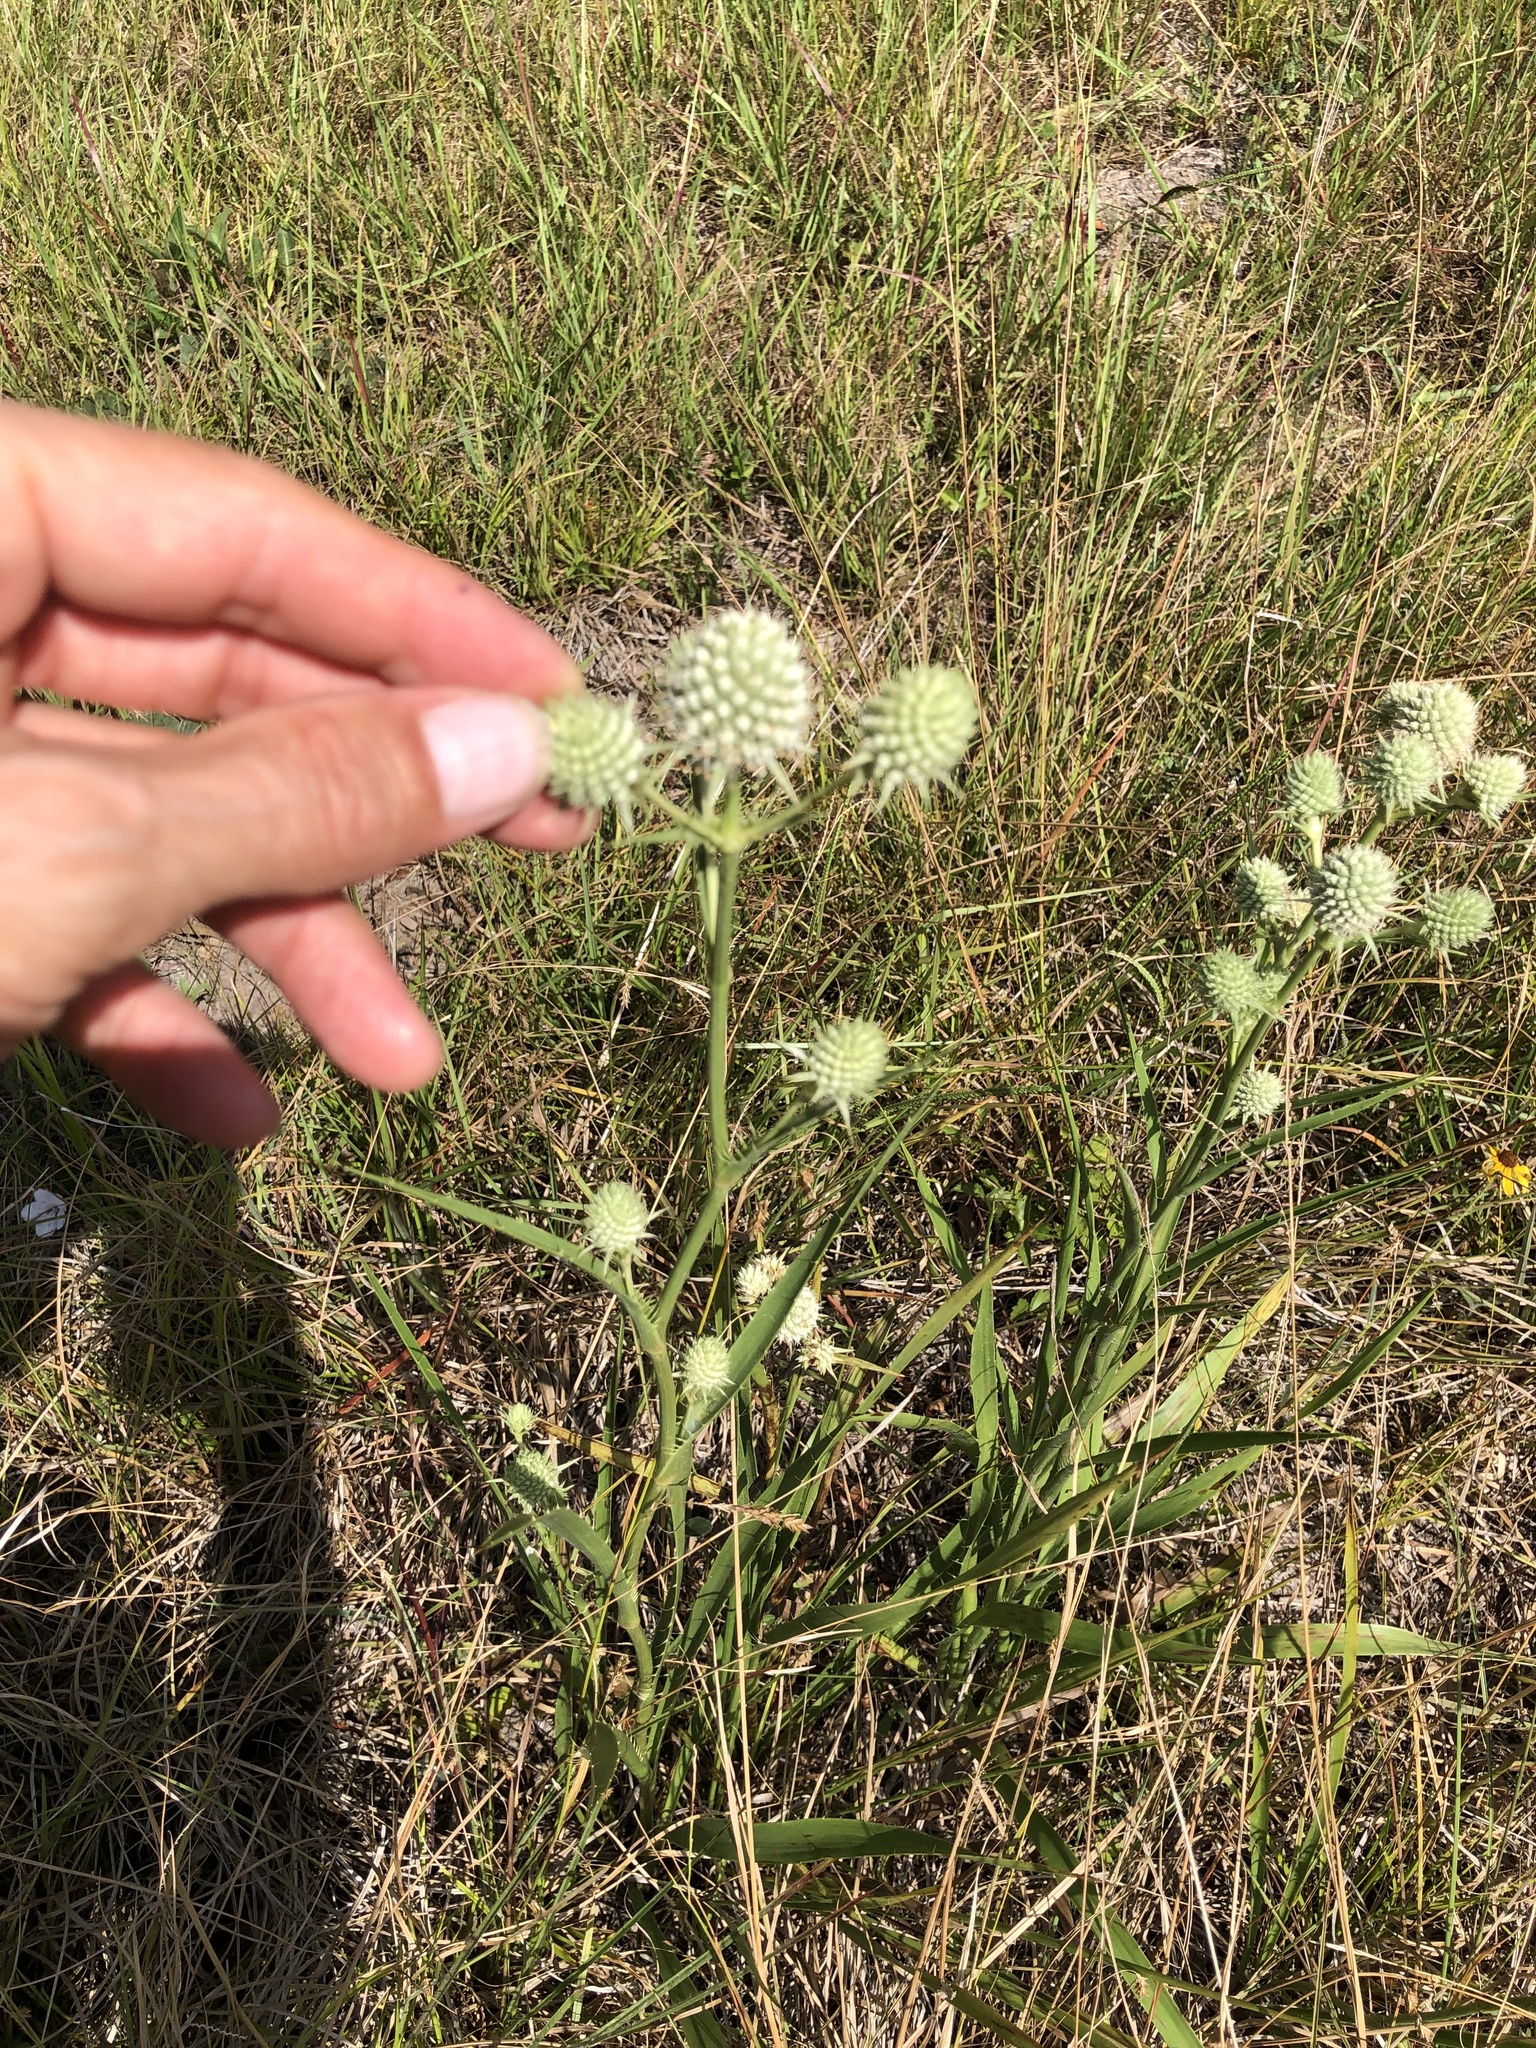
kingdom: Plantae
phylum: Tracheophyta
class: Magnoliopsida
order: Apiales
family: Apiaceae
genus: Eryngium
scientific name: Eryngium yuccifolium
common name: Button eryngo
